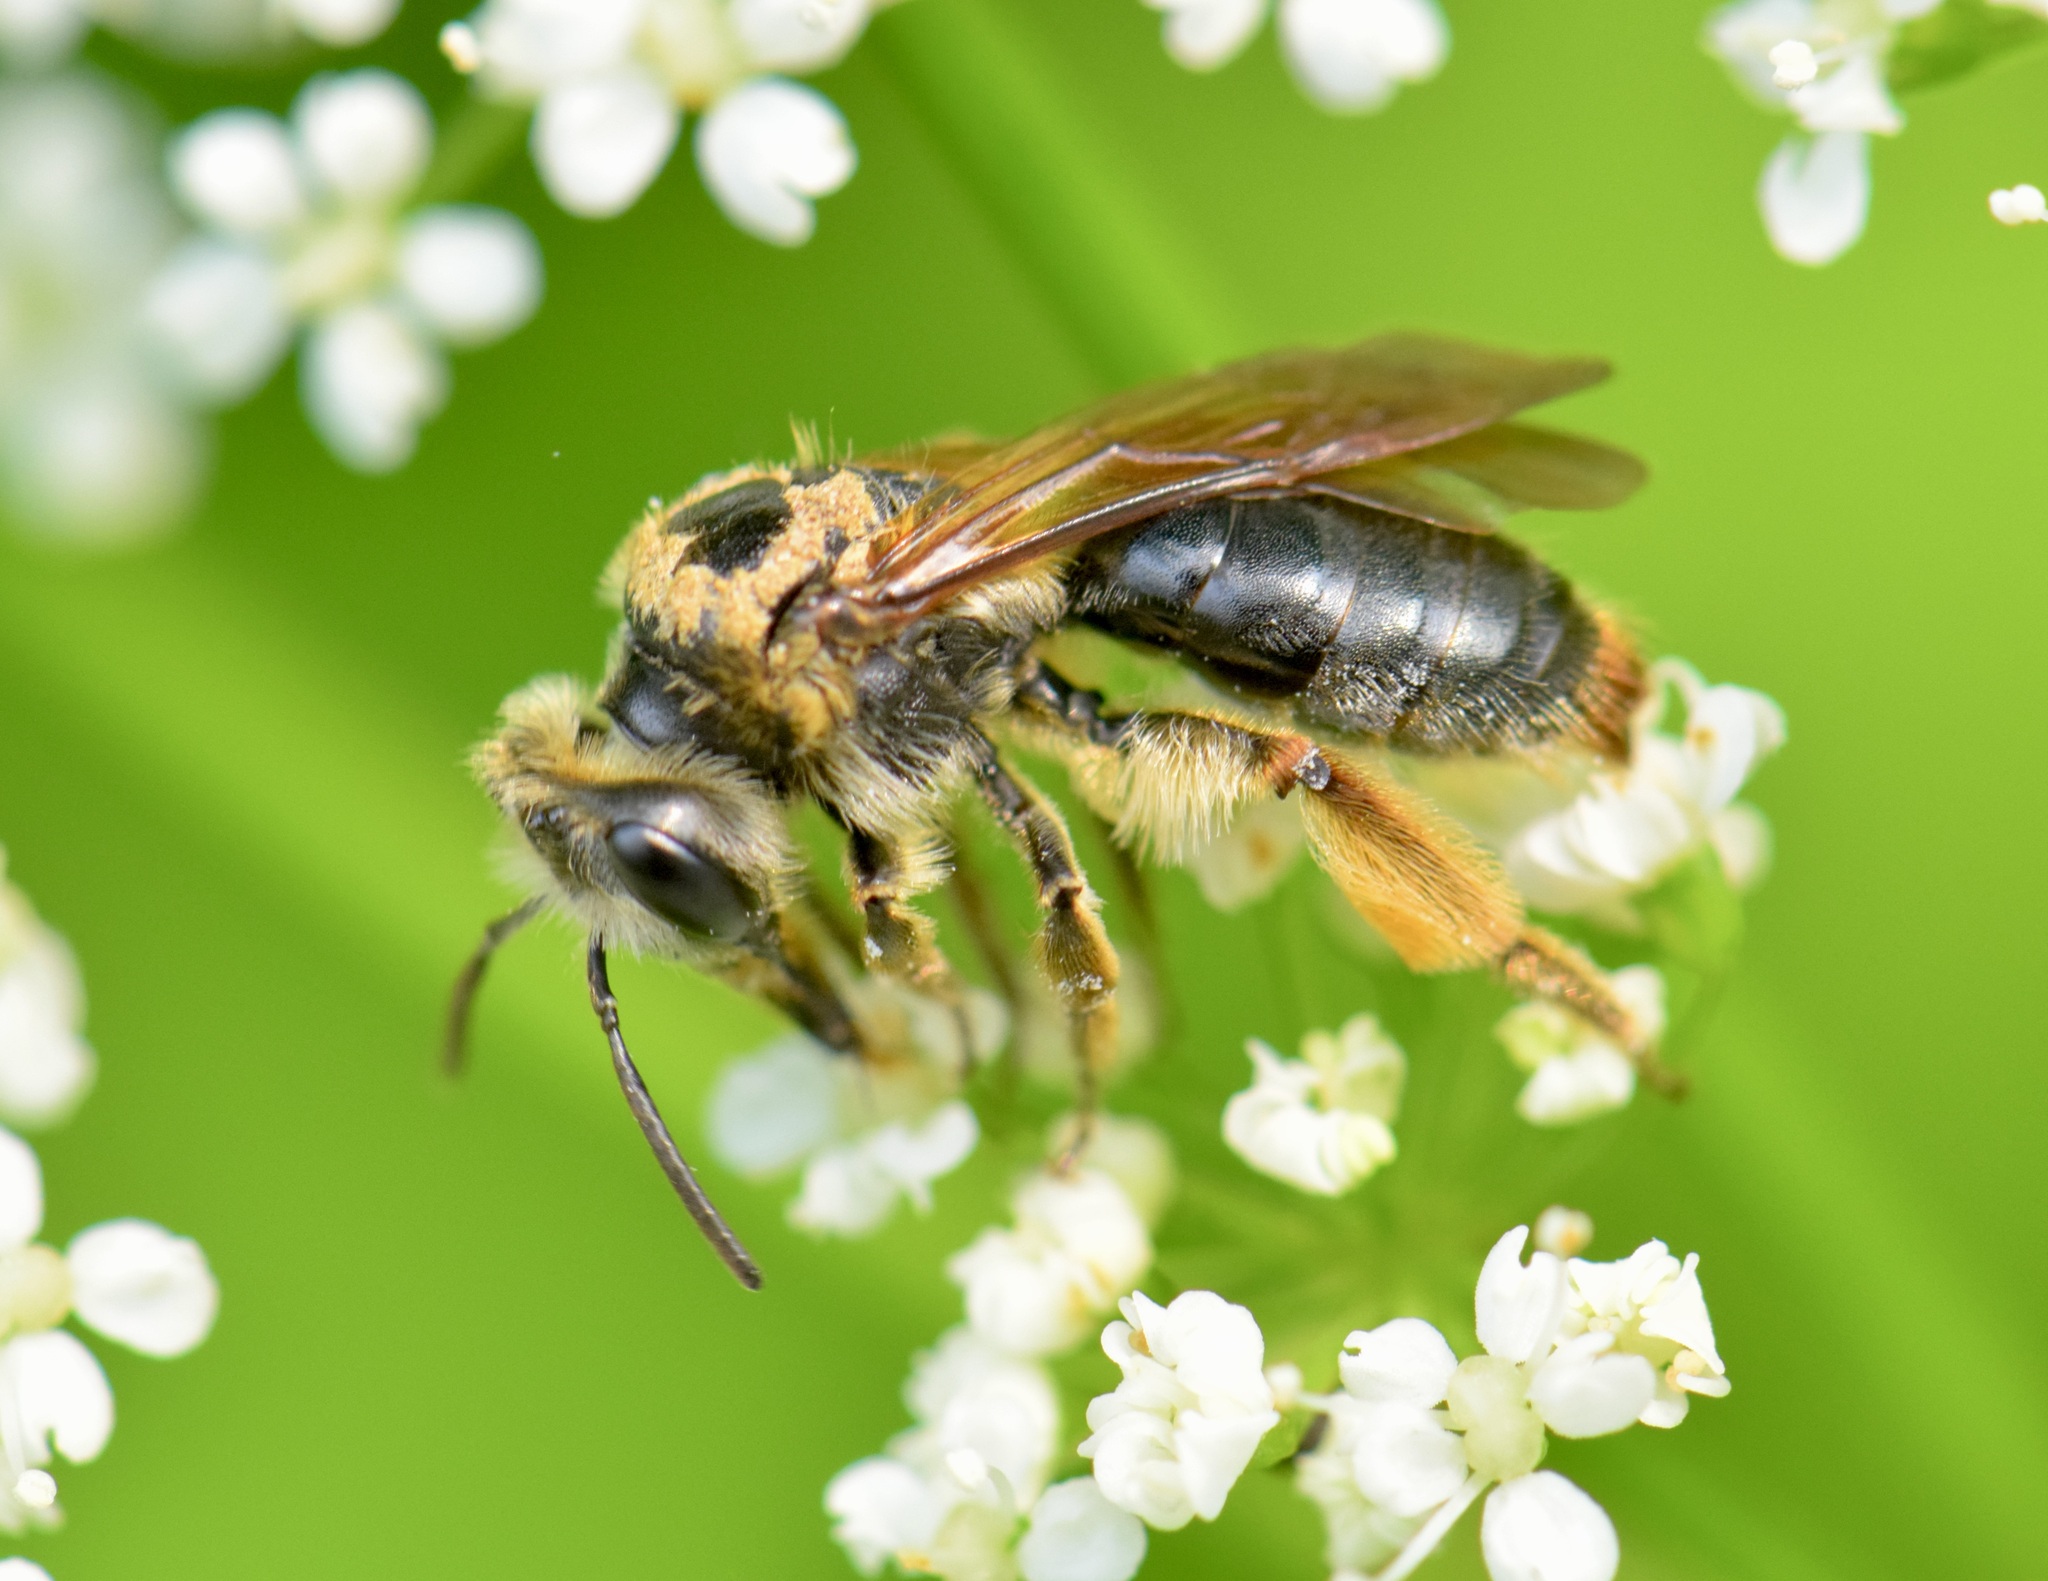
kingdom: Animalia
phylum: Arthropoda
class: Insecta
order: Hymenoptera
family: Andrenidae
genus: Andrena
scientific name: Andrena crataegi
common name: Hawthorn mining bee
